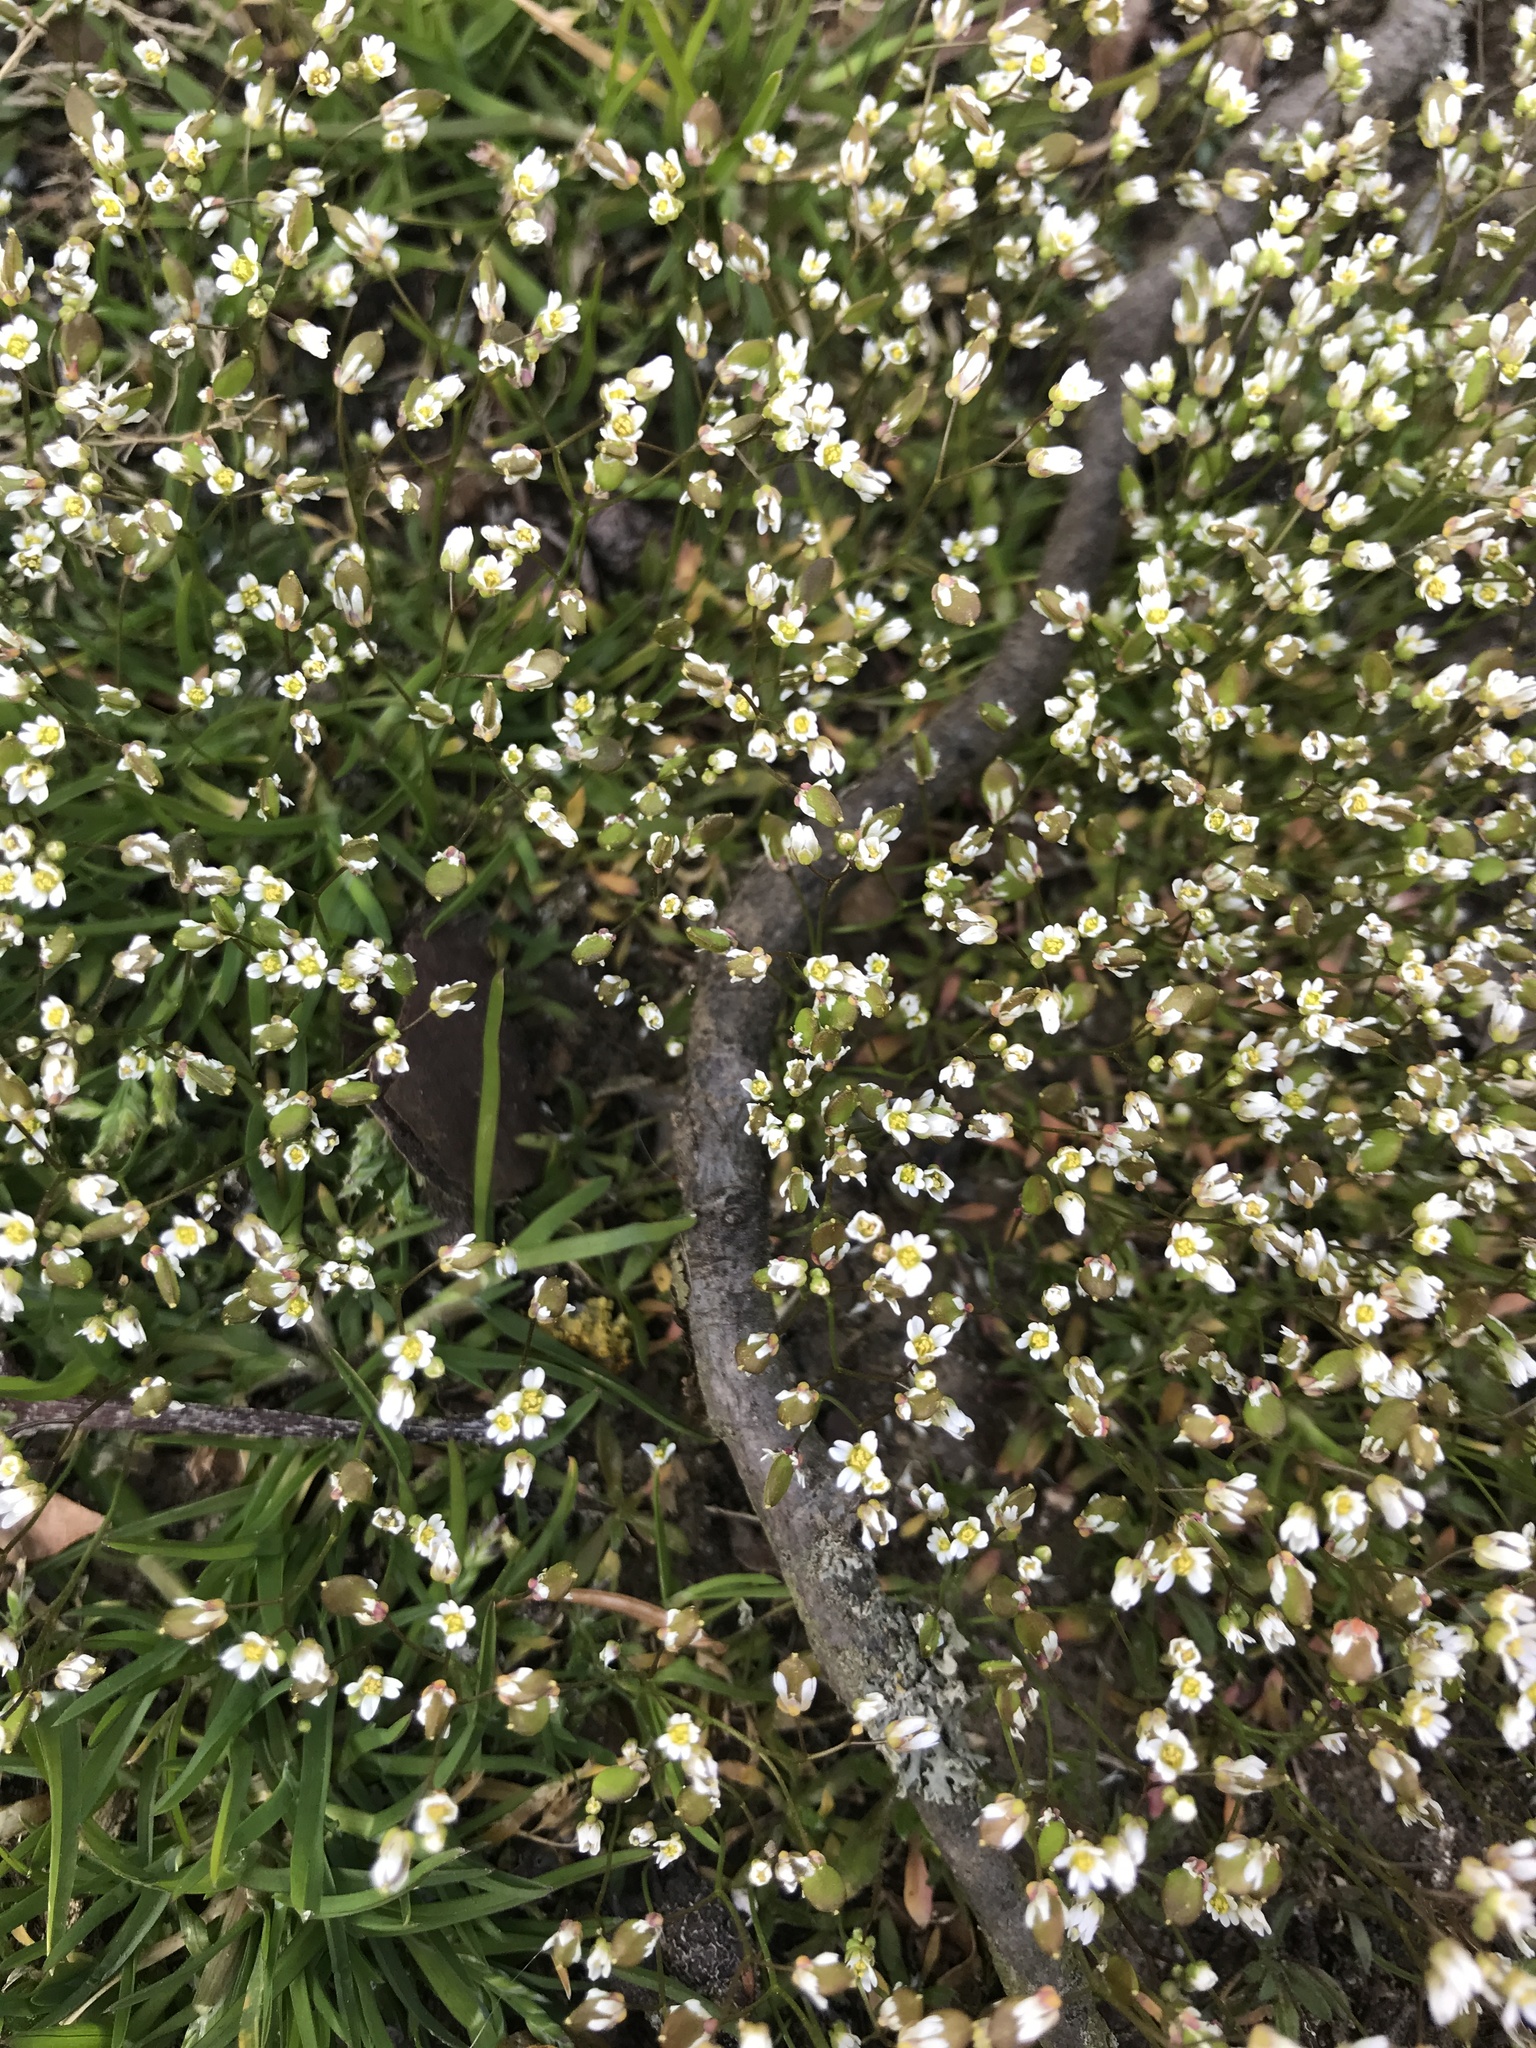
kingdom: Plantae
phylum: Tracheophyta
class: Magnoliopsida
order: Brassicales
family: Brassicaceae
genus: Draba
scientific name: Draba verna
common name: Spring draba
